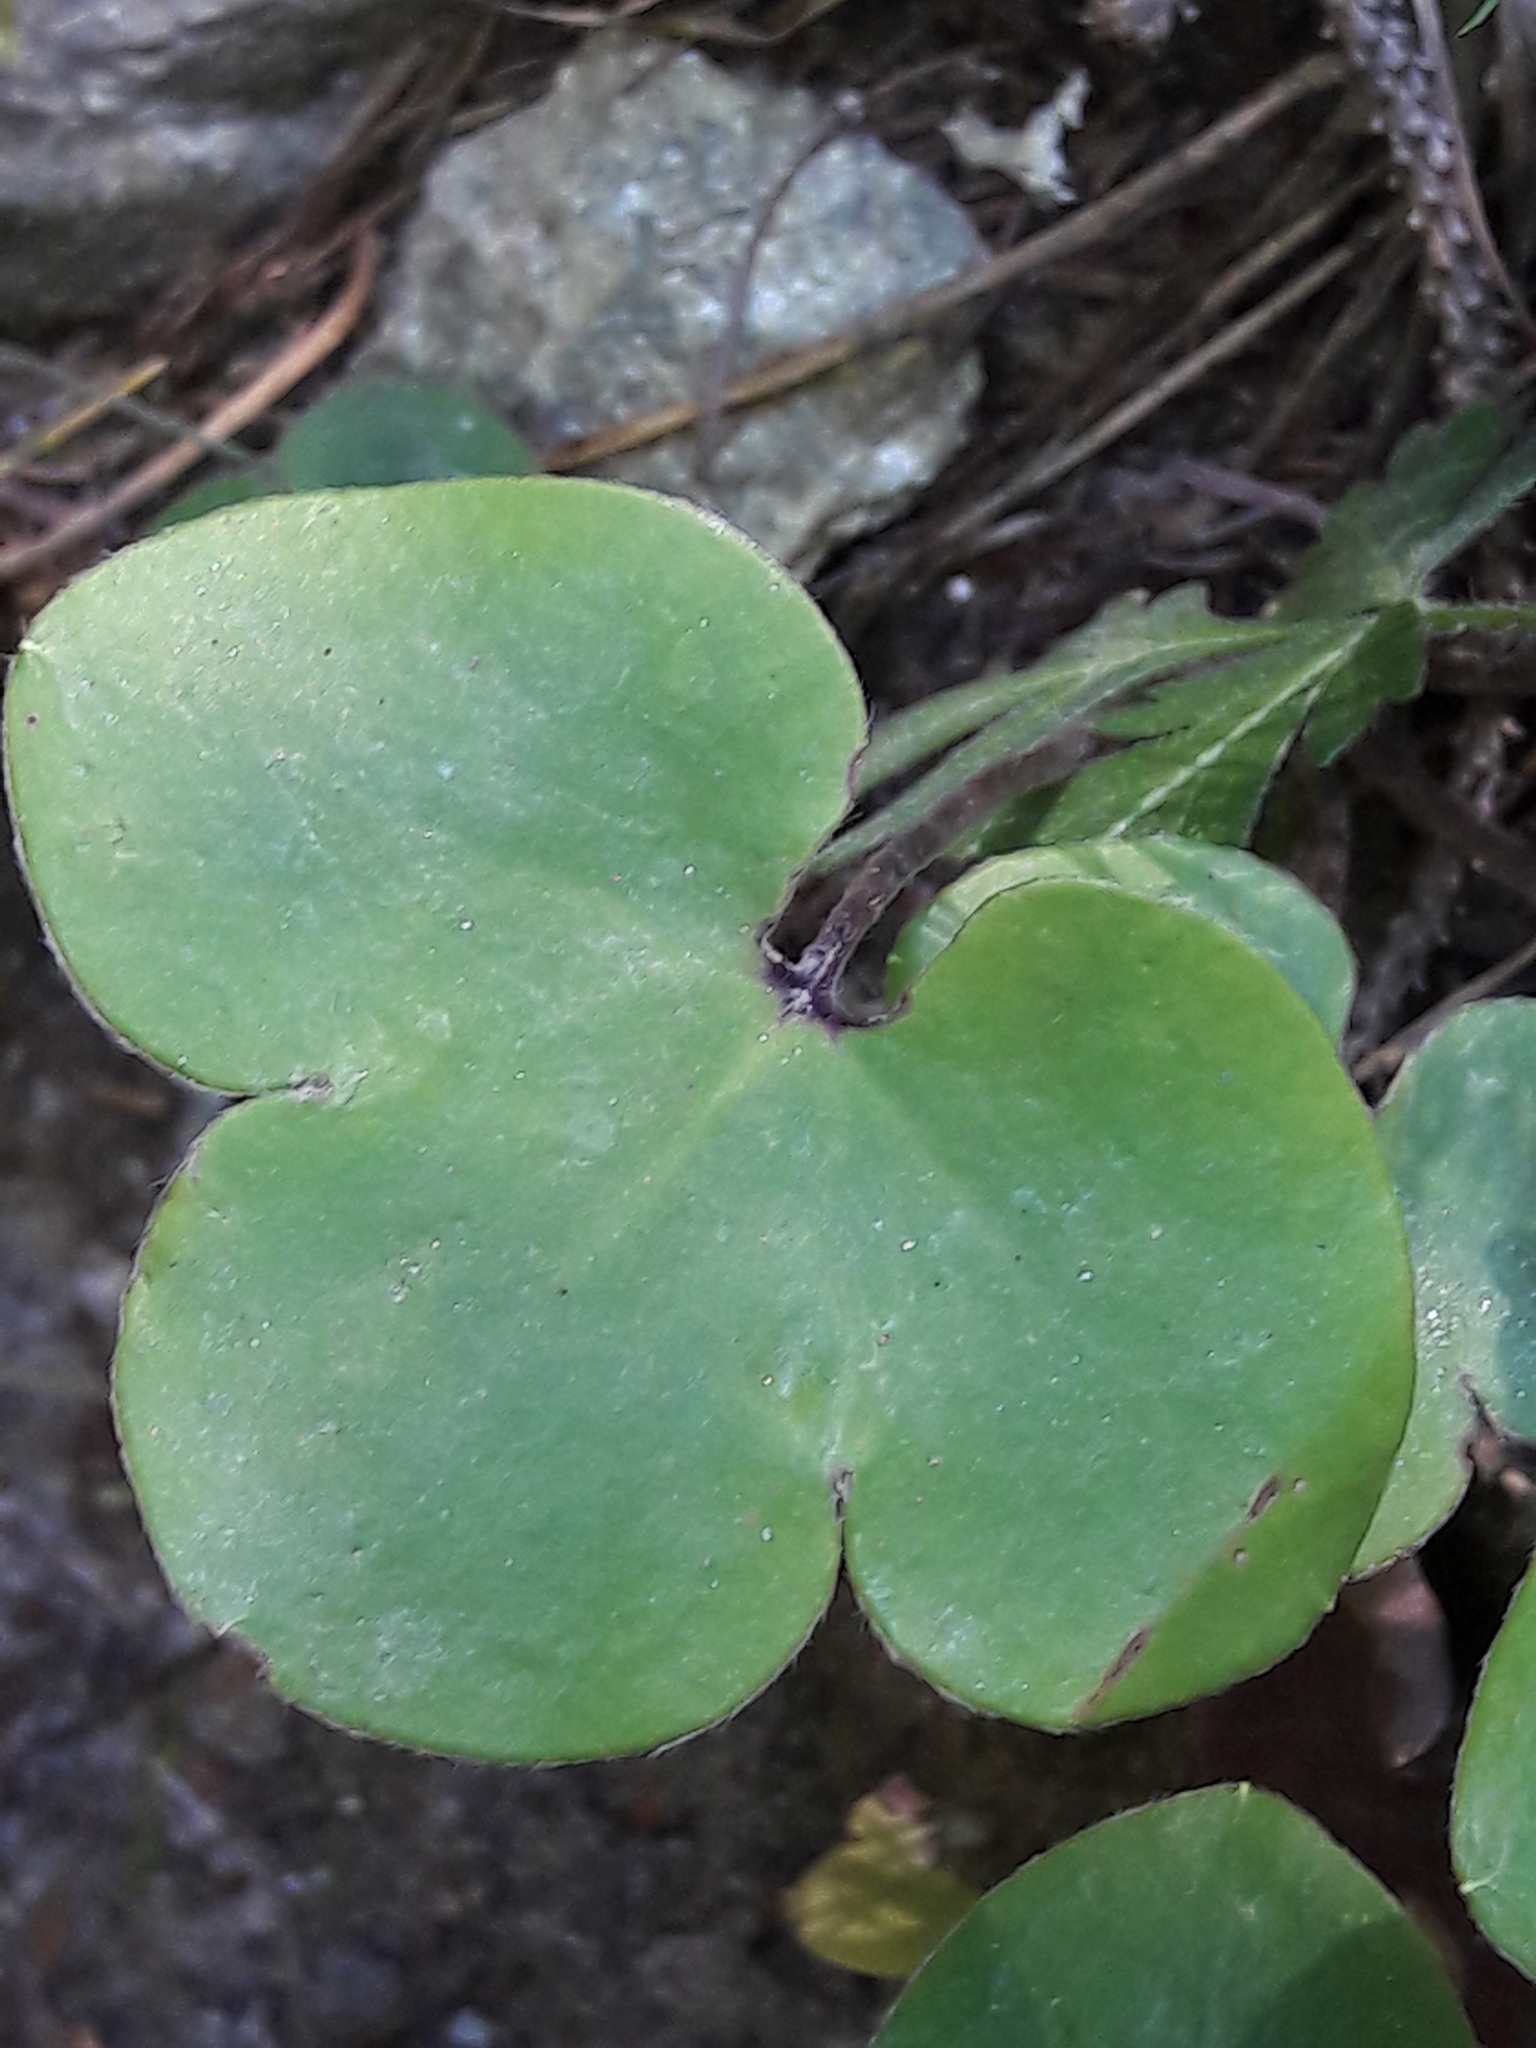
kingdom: Plantae
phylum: Tracheophyta
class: Magnoliopsida
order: Ranunculales
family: Ranunculaceae
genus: Hepatica
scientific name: Hepatica nobilis
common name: Liverleaf
